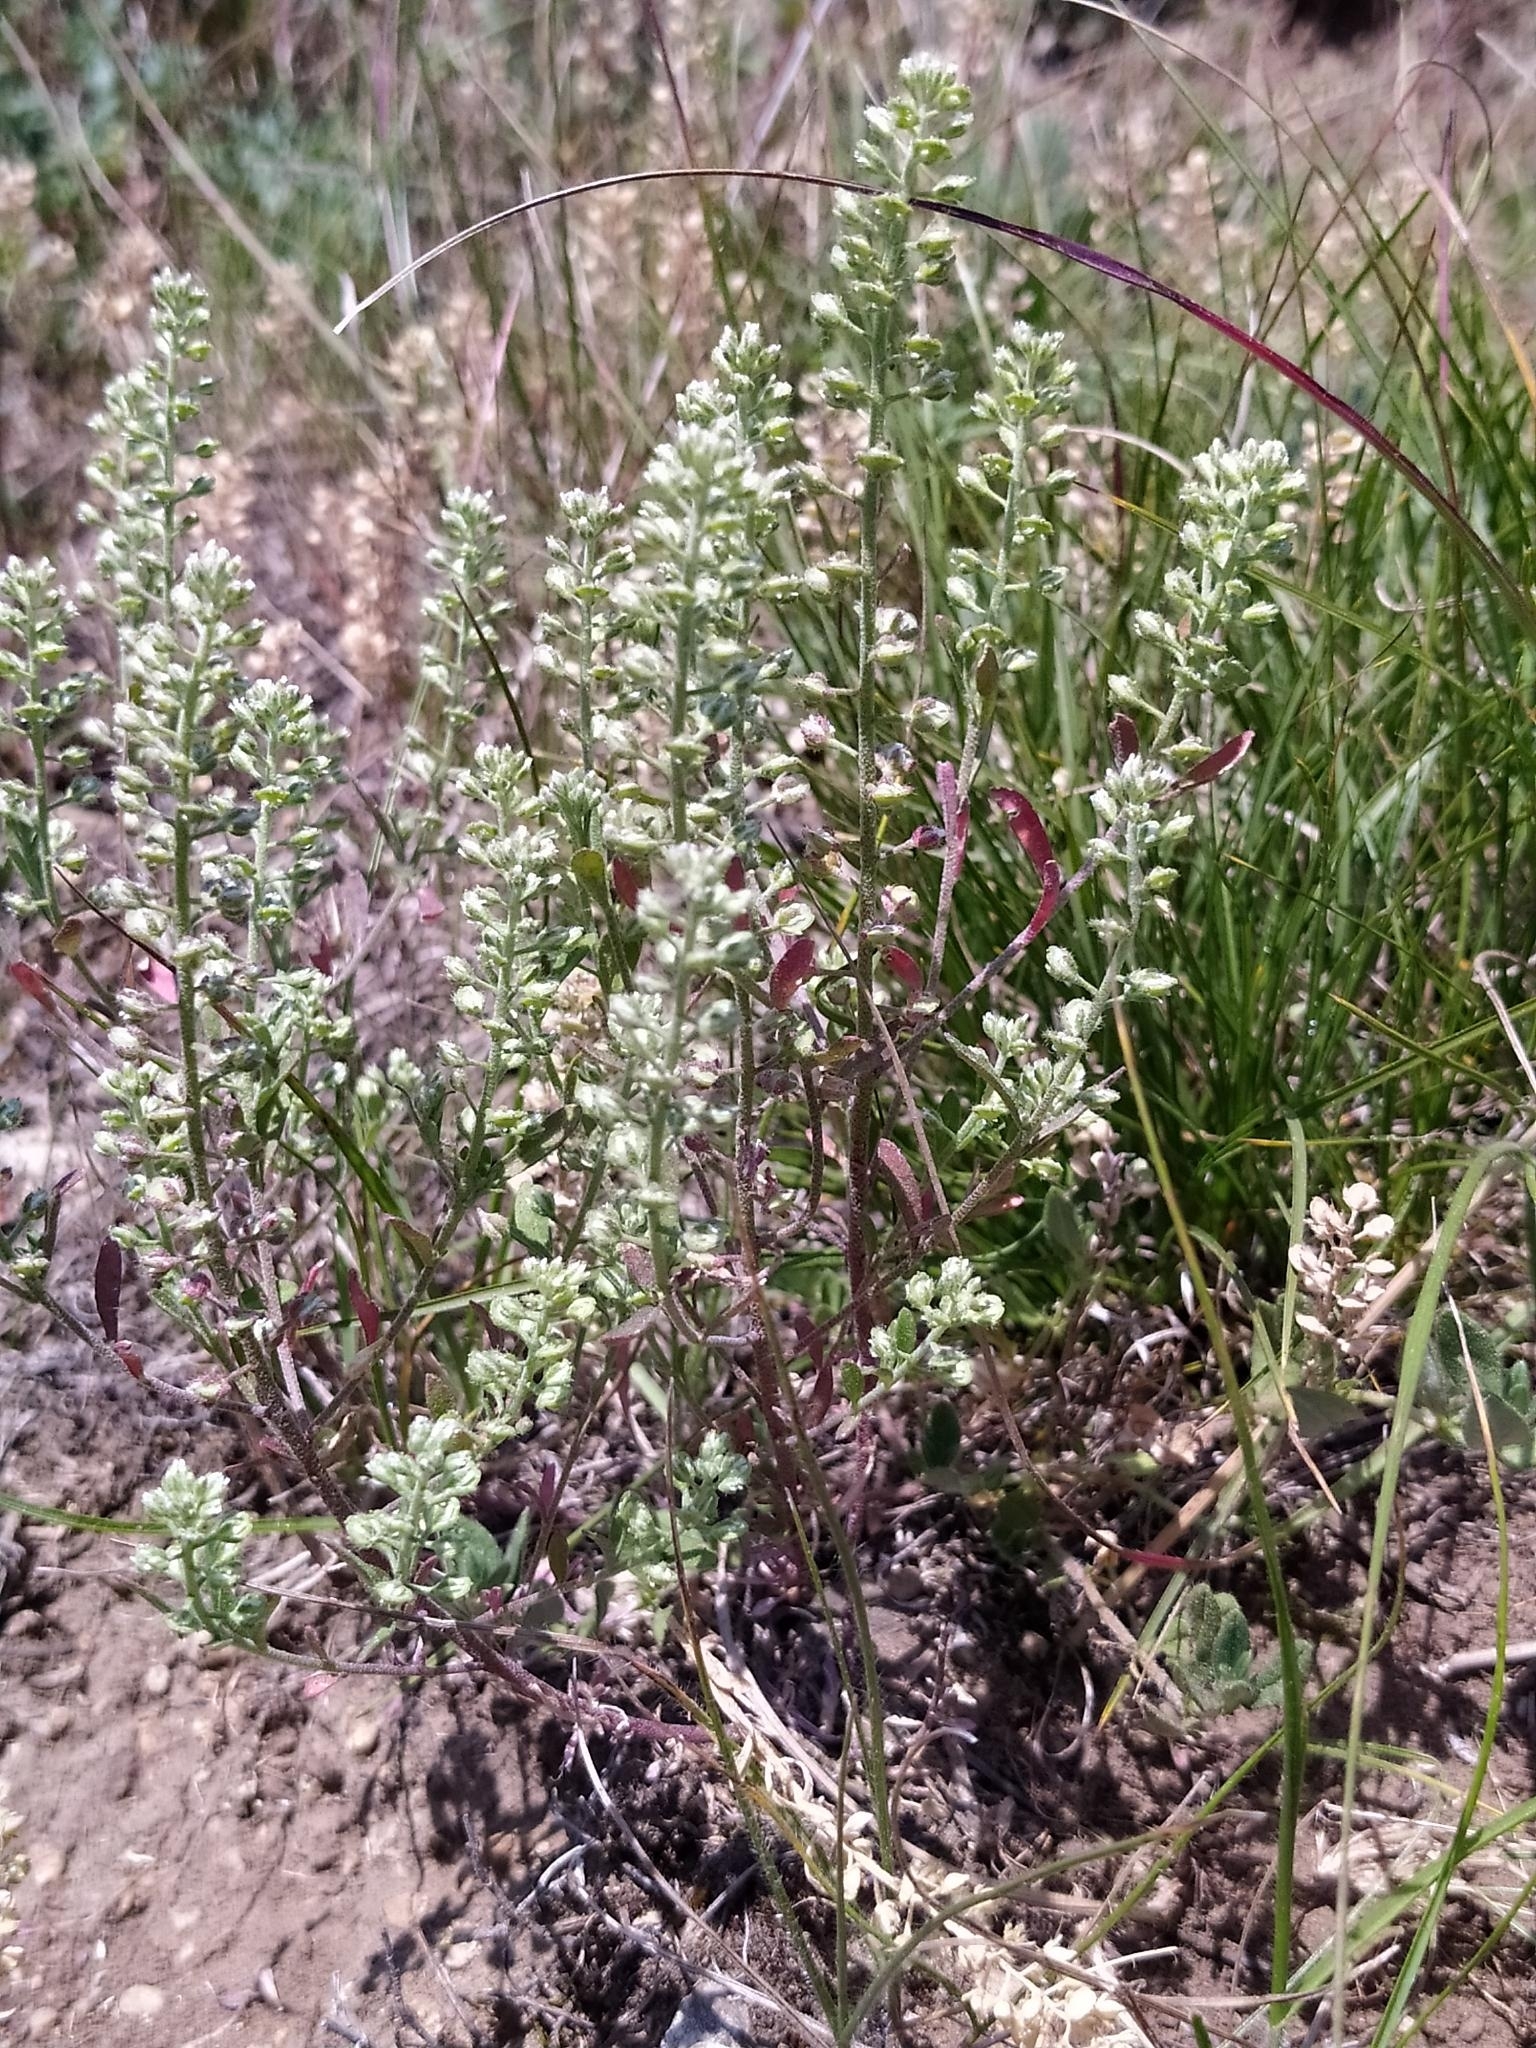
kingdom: Plantae
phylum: Tracheophyta
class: Magnoliopsida
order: Brassicales
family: Brassicaceae
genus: Alyssum
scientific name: Alyssum alyssoides
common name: Small alison
